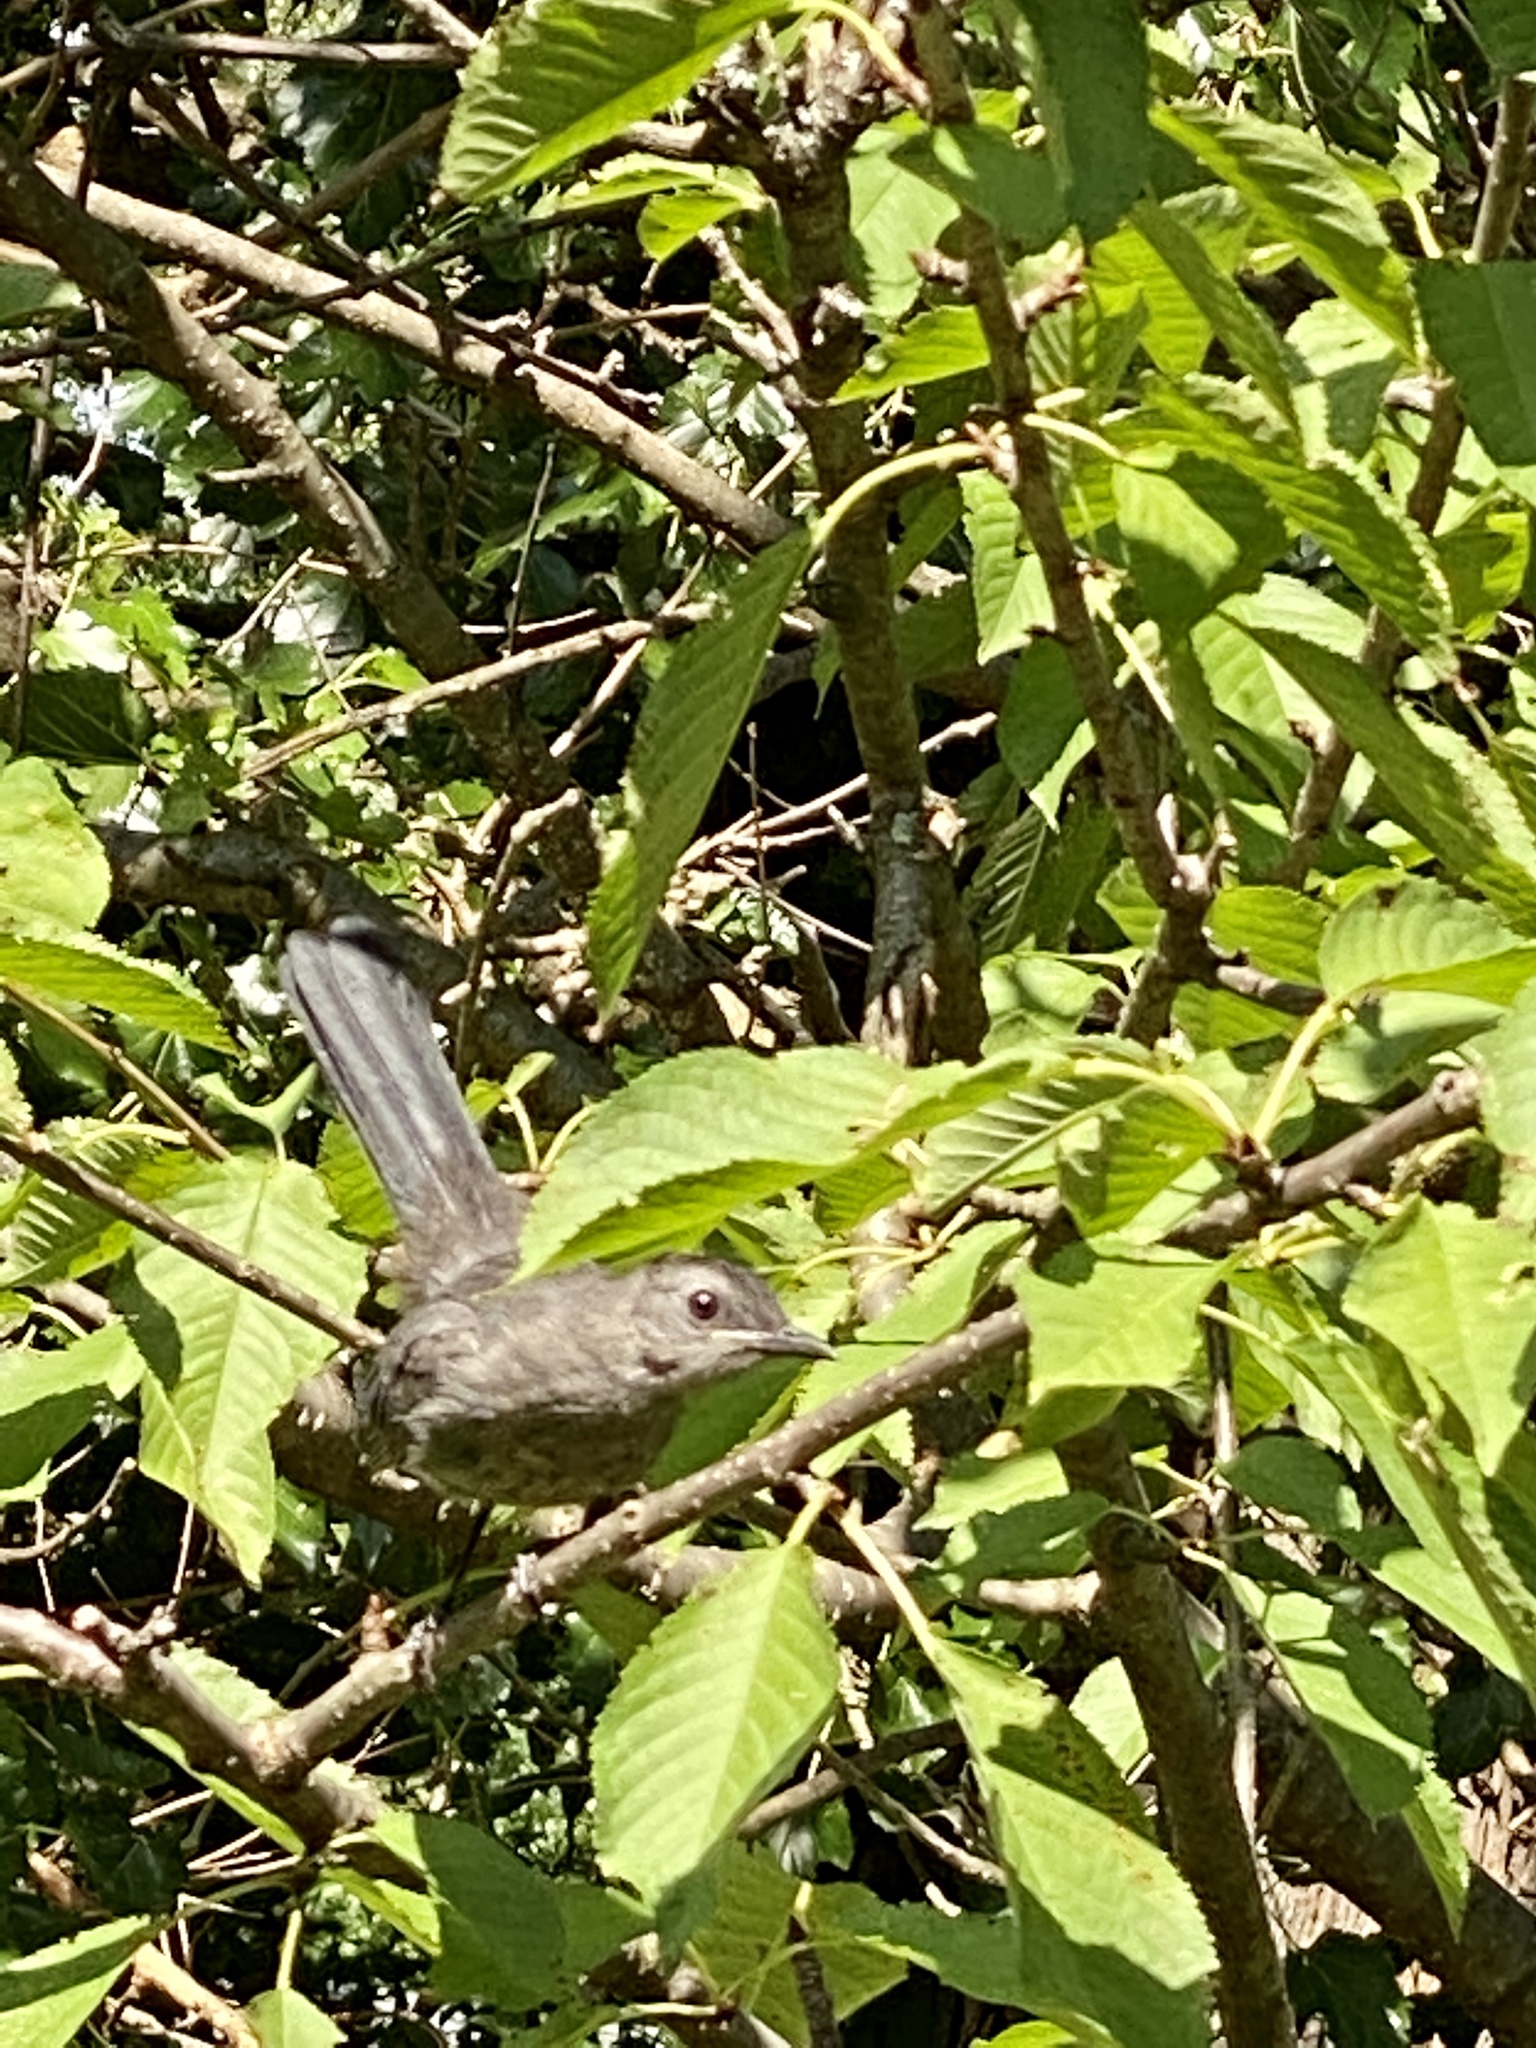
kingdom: Animalia
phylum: Chordata
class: Aves
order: Passeriformes
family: Mimidae
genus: Dumetella
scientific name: Dumetella carolinensis
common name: Gray catbird
